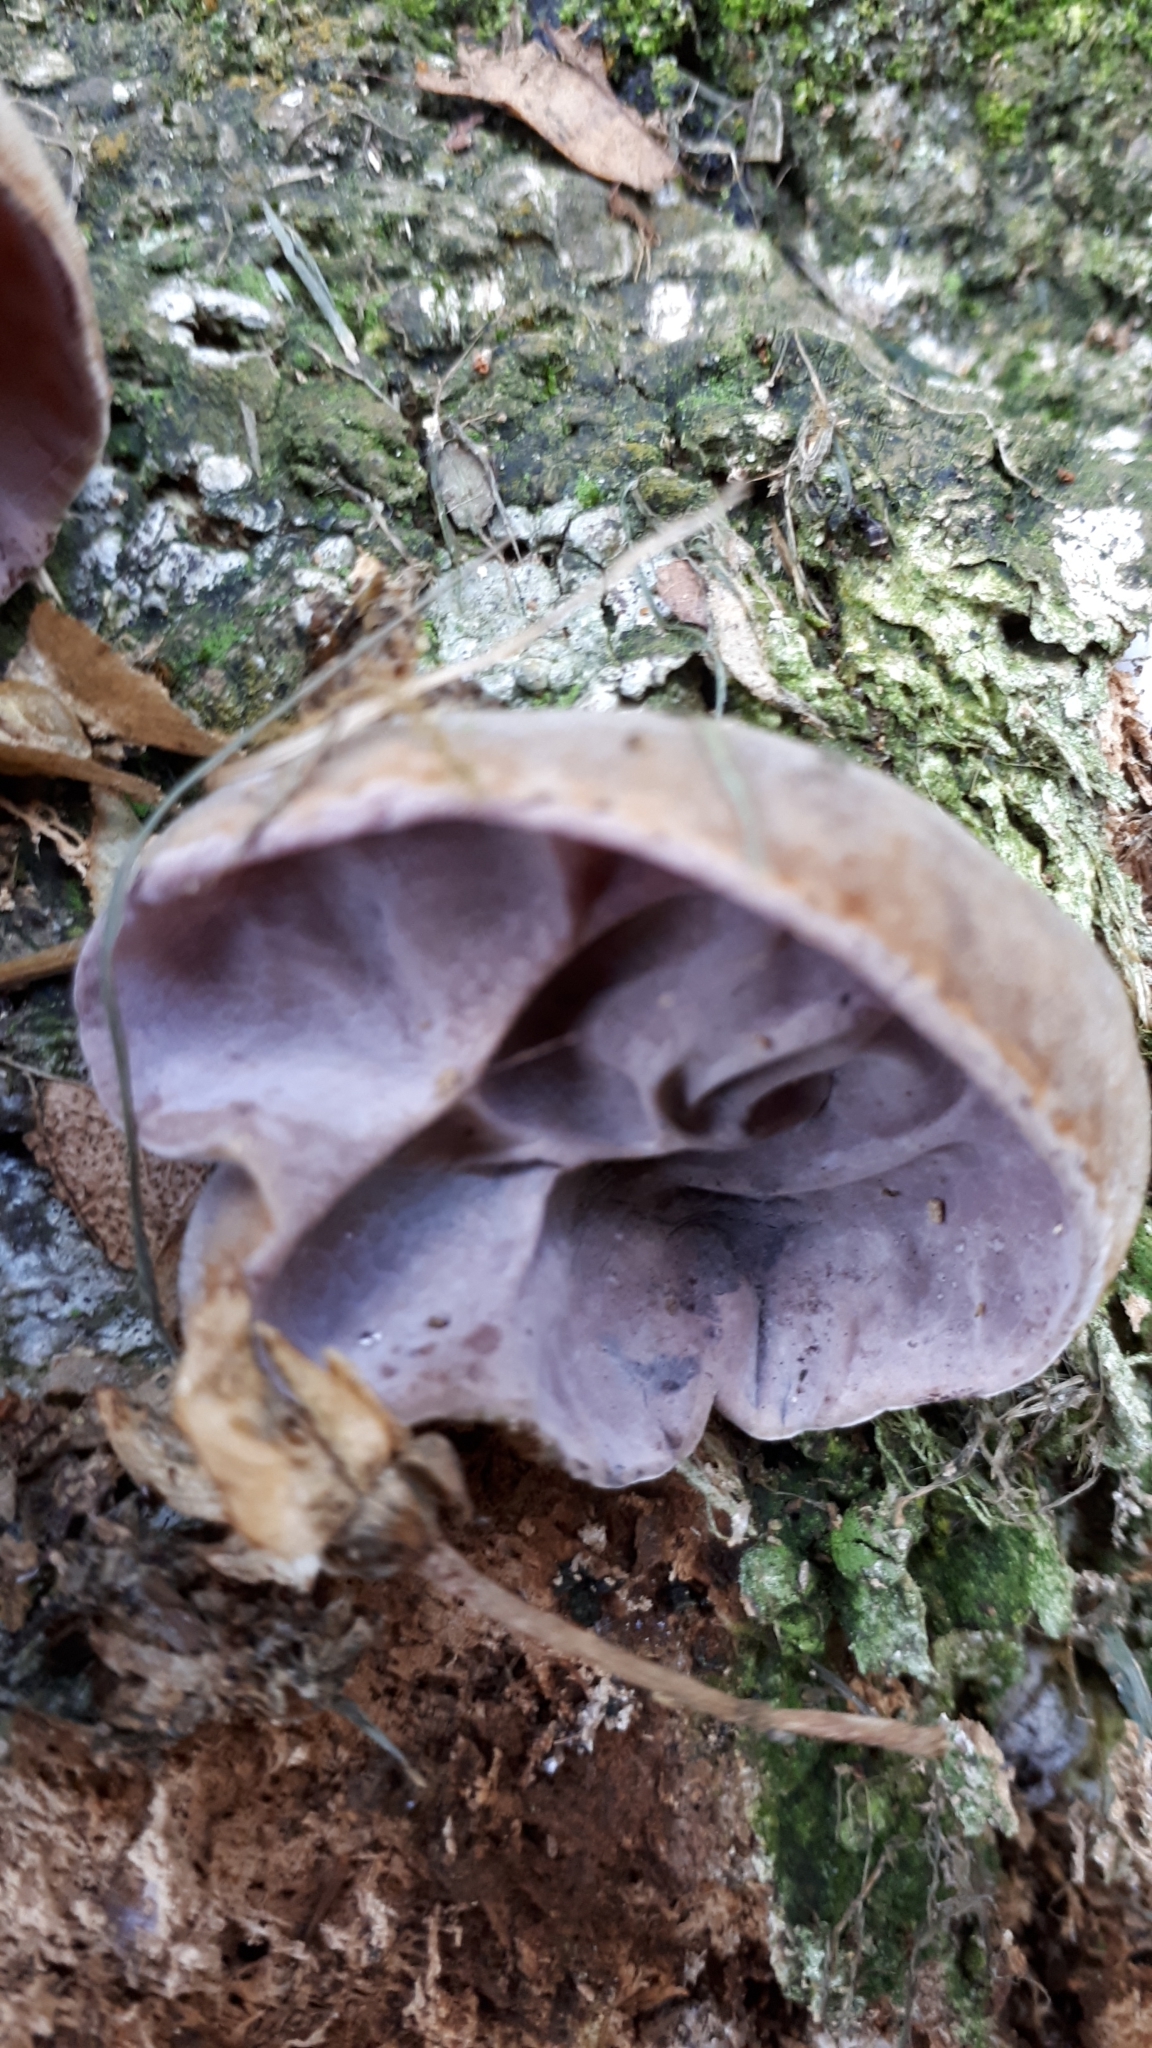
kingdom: Fungi
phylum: Basidiomycota
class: Agaricomycetes
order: Auriculariales
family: Auriculariaceae
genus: Auricularia
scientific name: Auricularia cornea
